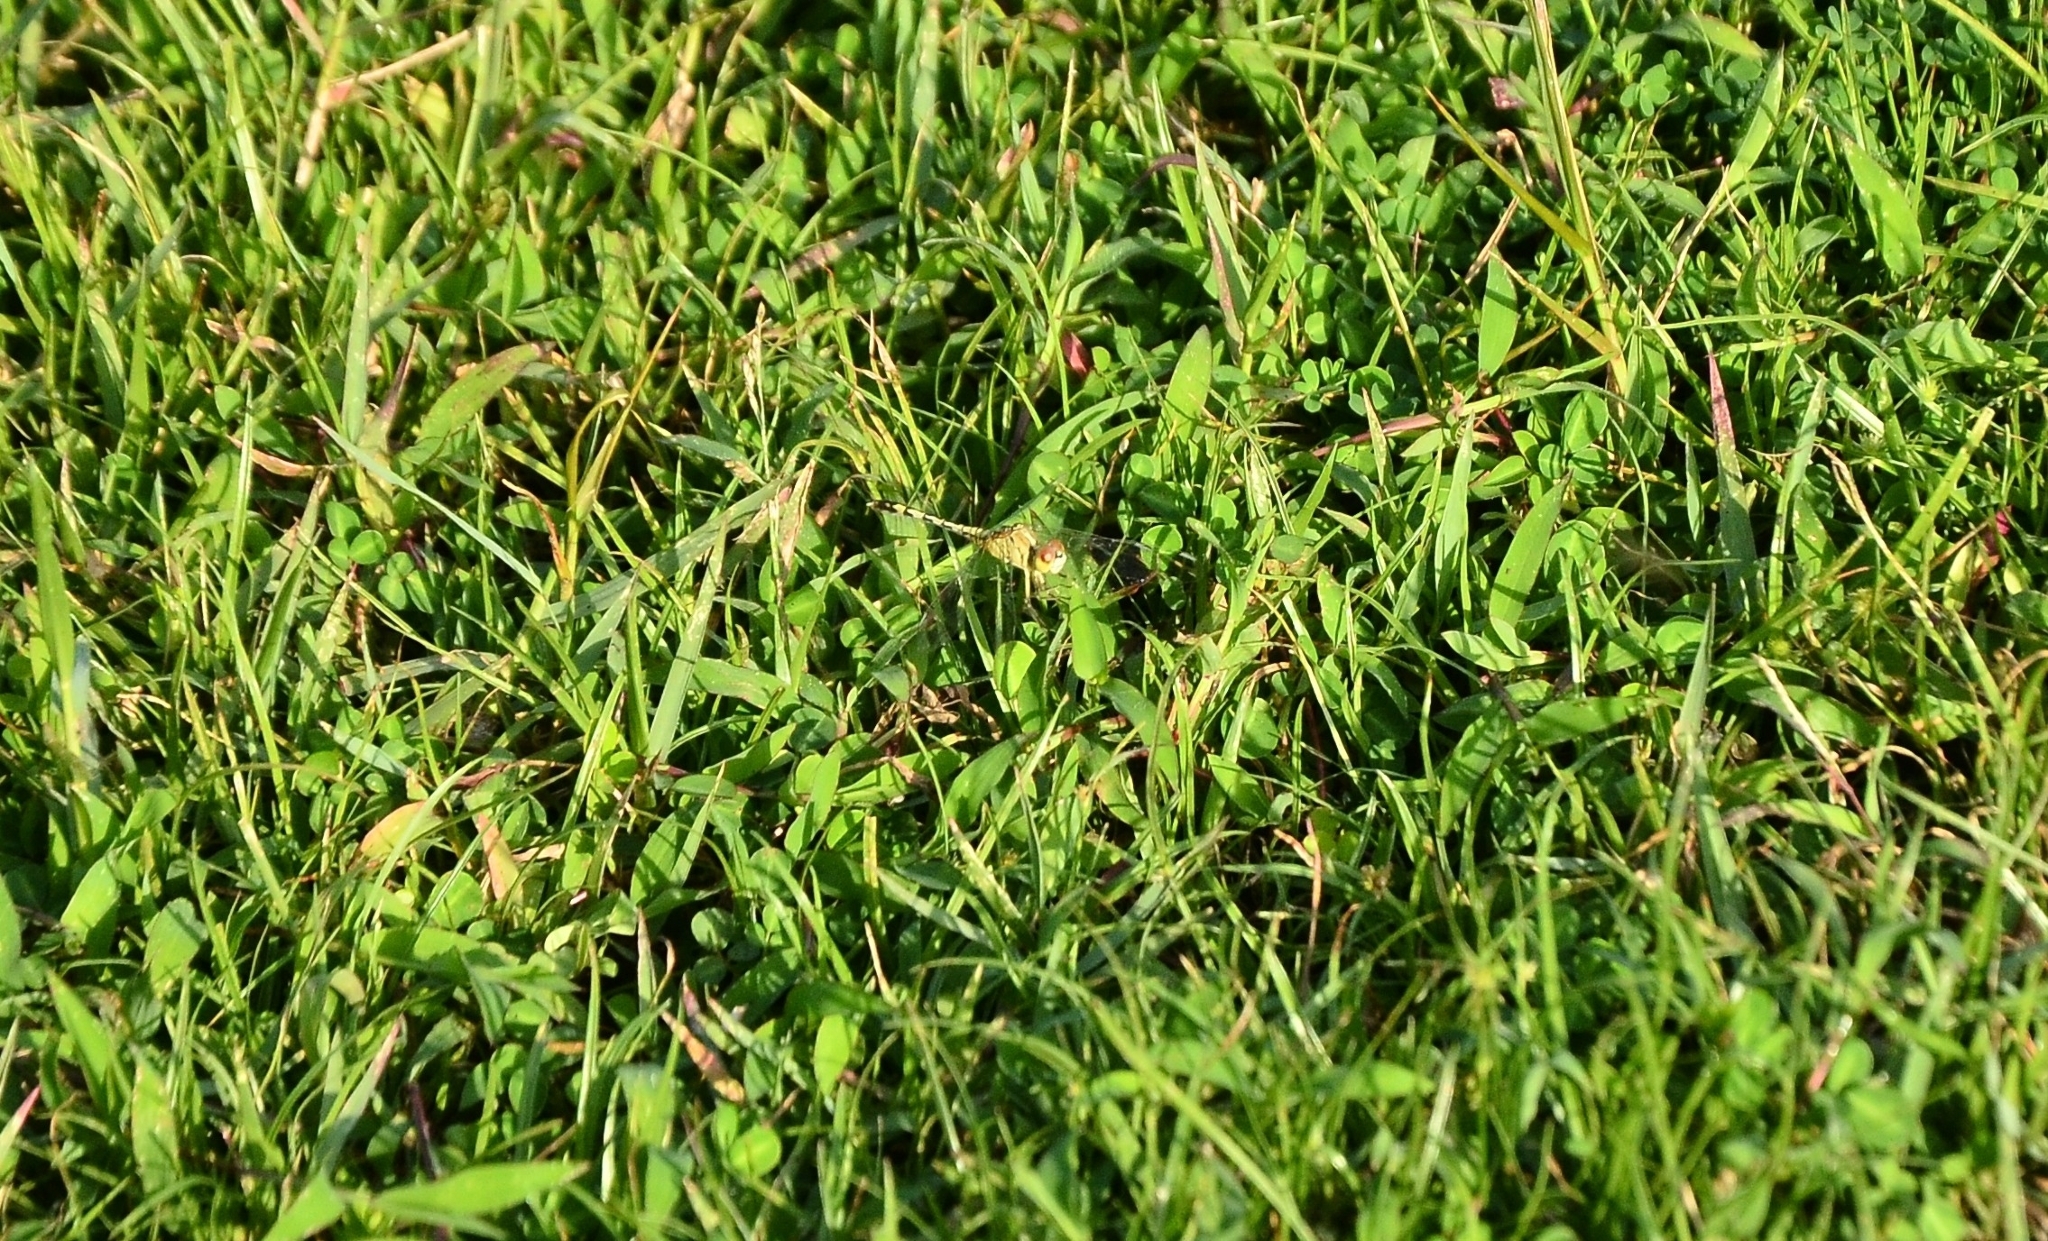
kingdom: Animalia
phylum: Arthropoda
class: Insecta
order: Odonata
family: Libellulidae
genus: Diplacodes
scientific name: Diplacodes trivialis
